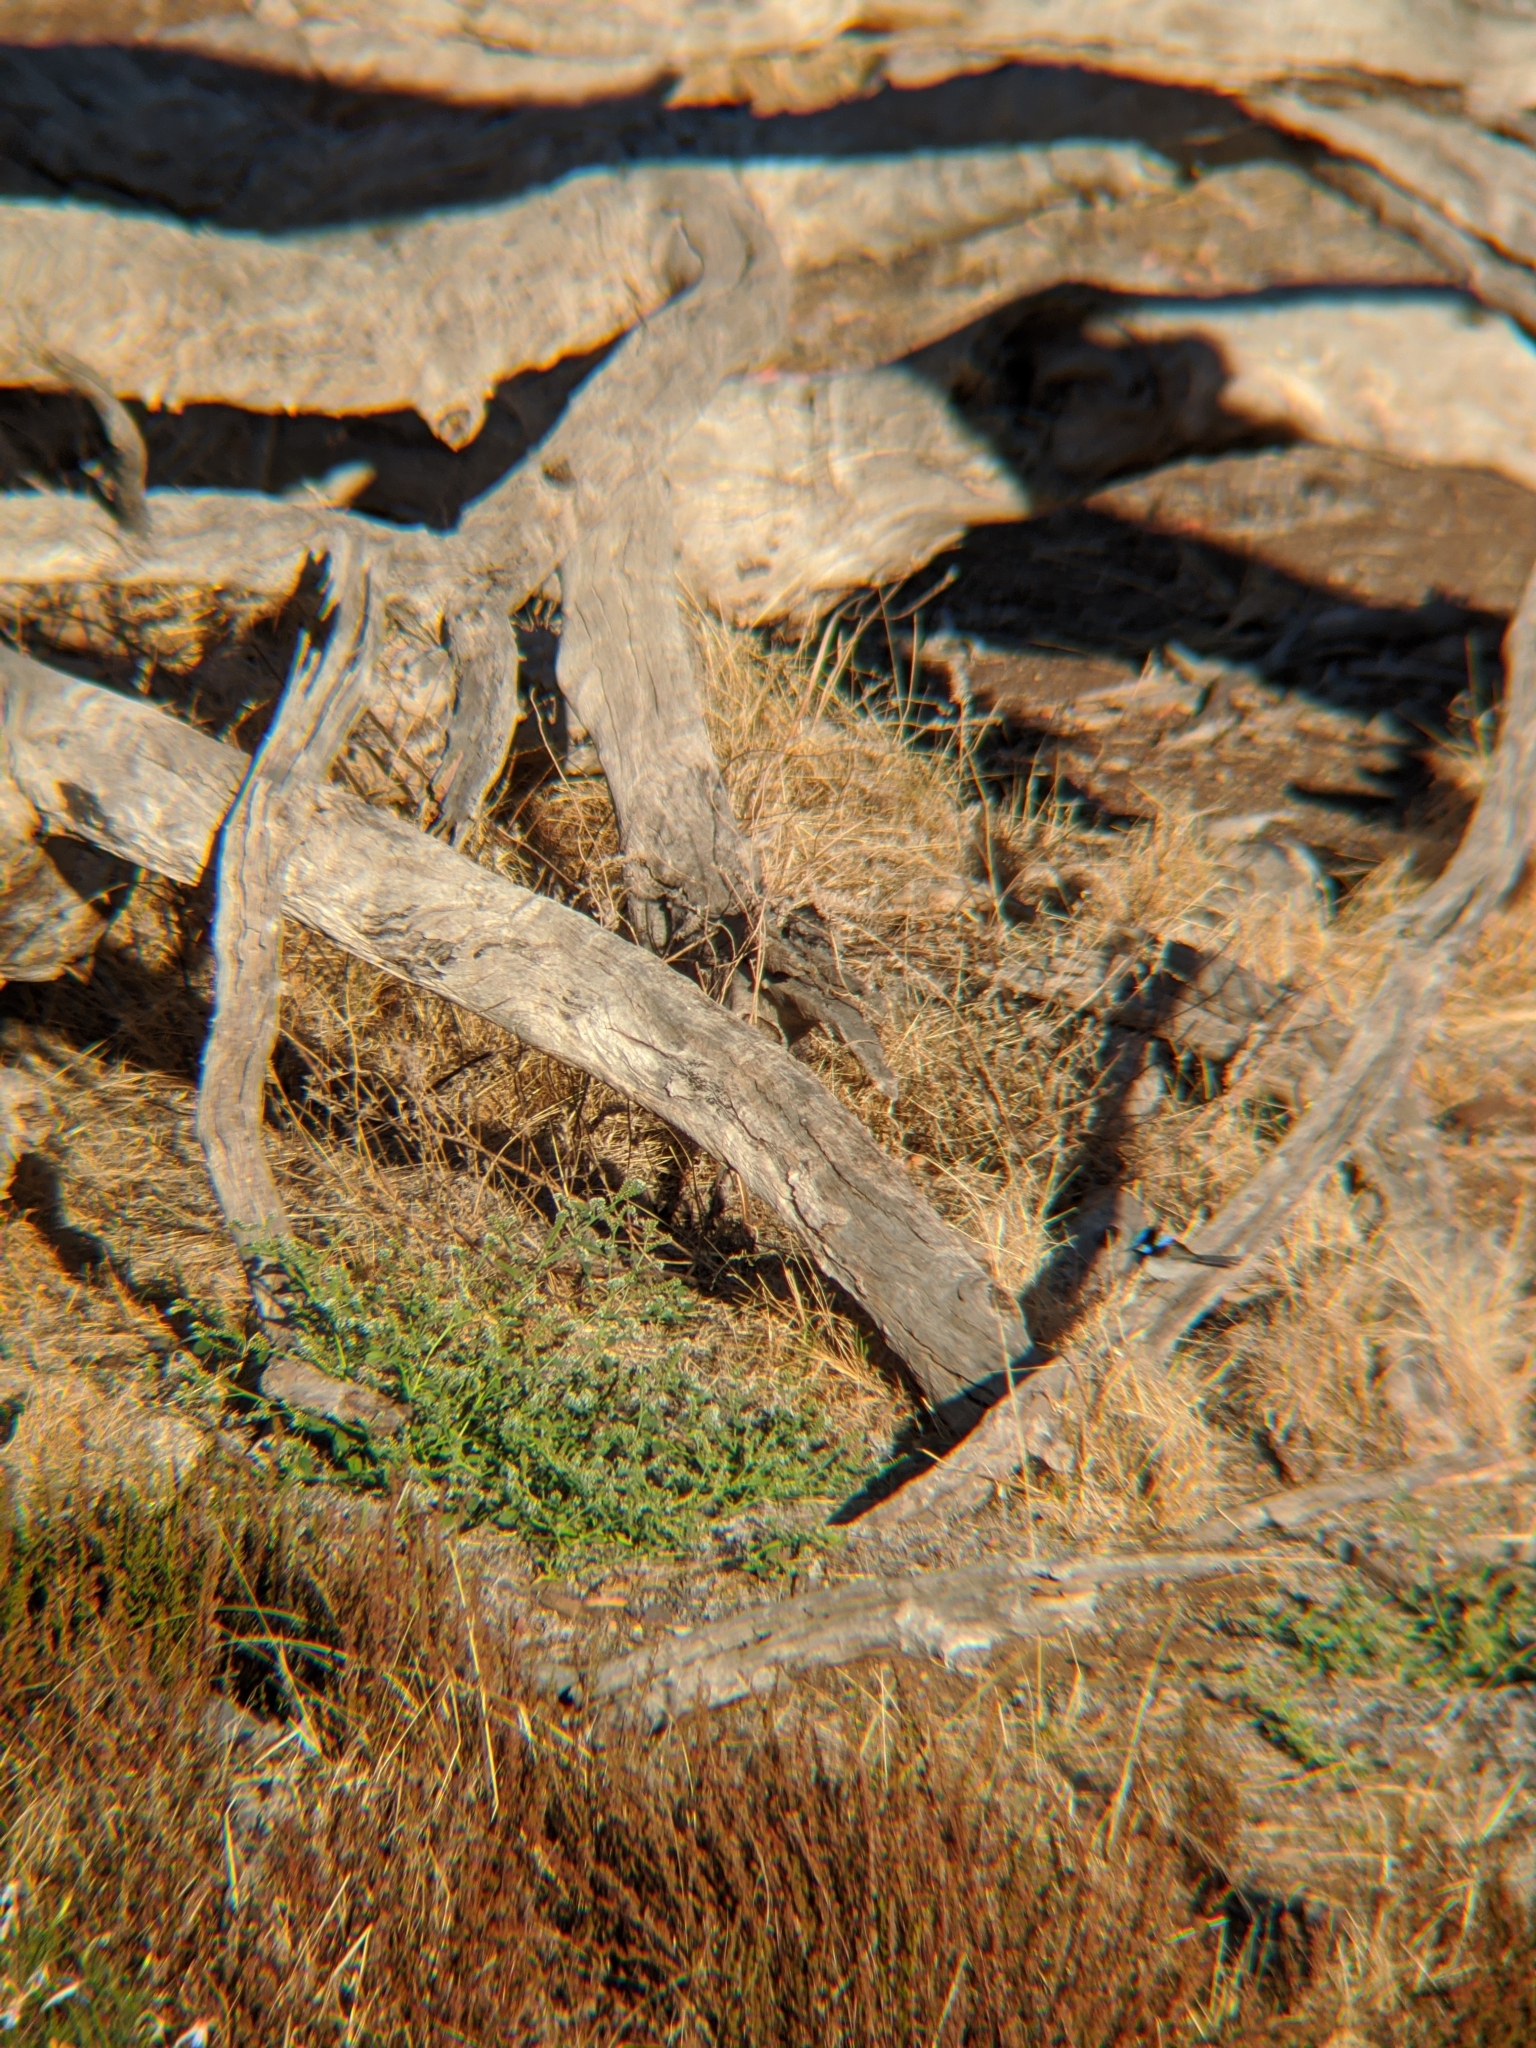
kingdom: Animalia
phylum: Chordata
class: Aves
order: Passeriformes
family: Maluridae
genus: Malurus
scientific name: Malurus cyaneus
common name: Superb fairywren
